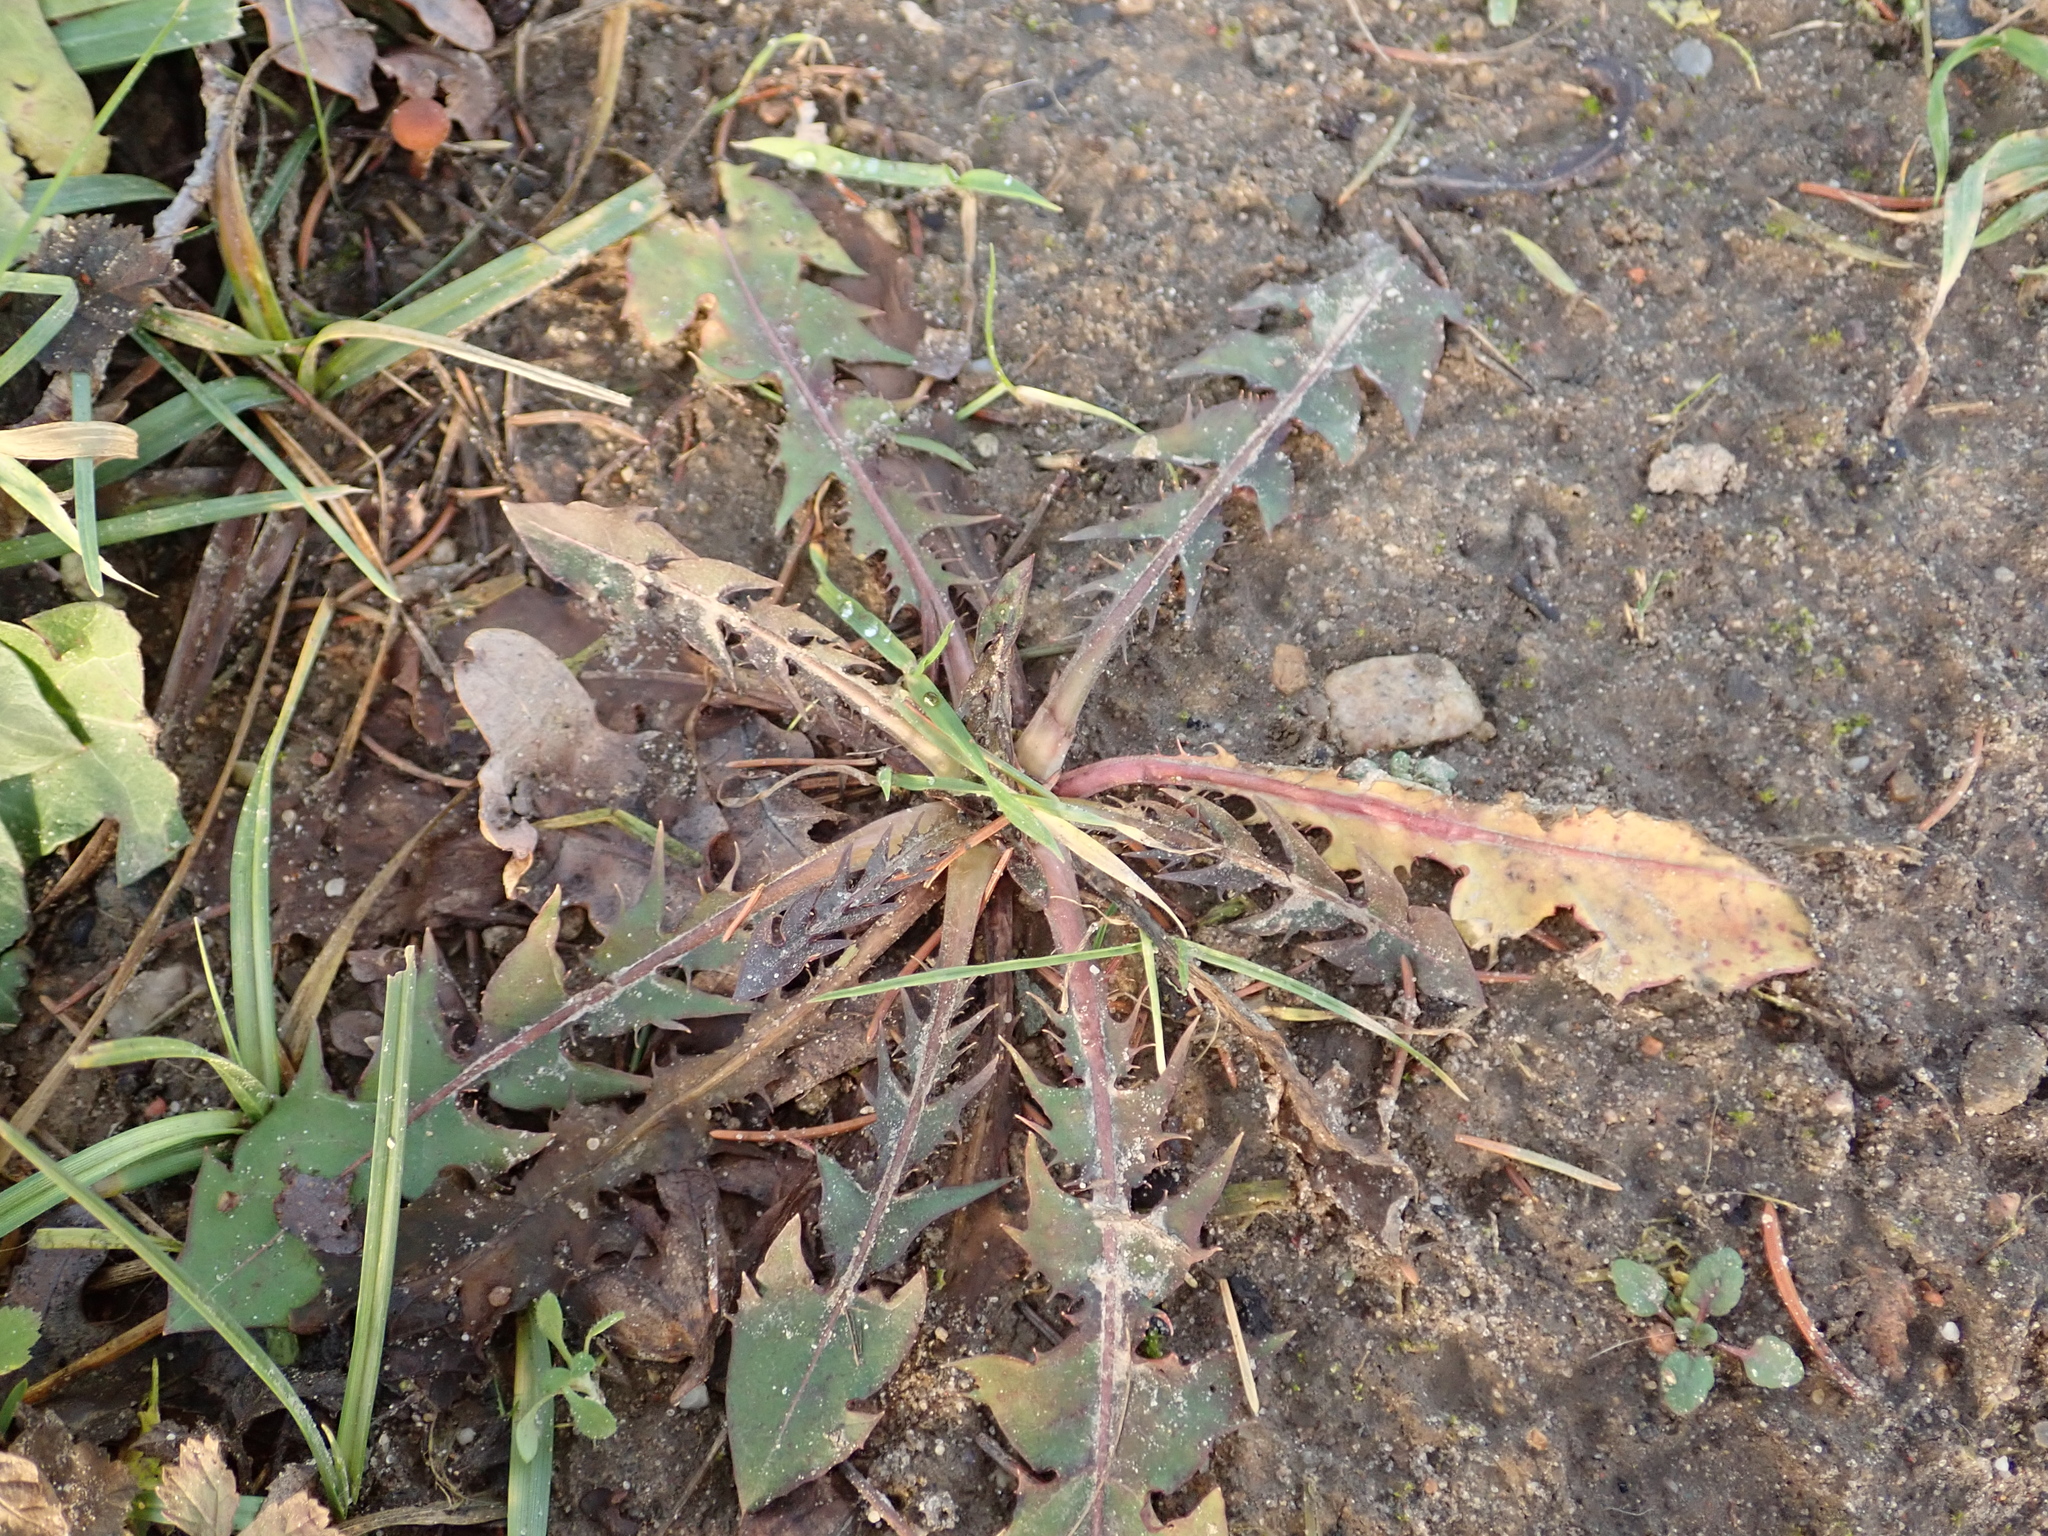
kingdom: Plantae
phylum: Tracheophyta
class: Magnoliopsida
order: Asterales
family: Asteraceae
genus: Taraxacum
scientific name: Taraxacum officinale
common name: Common dandelion
